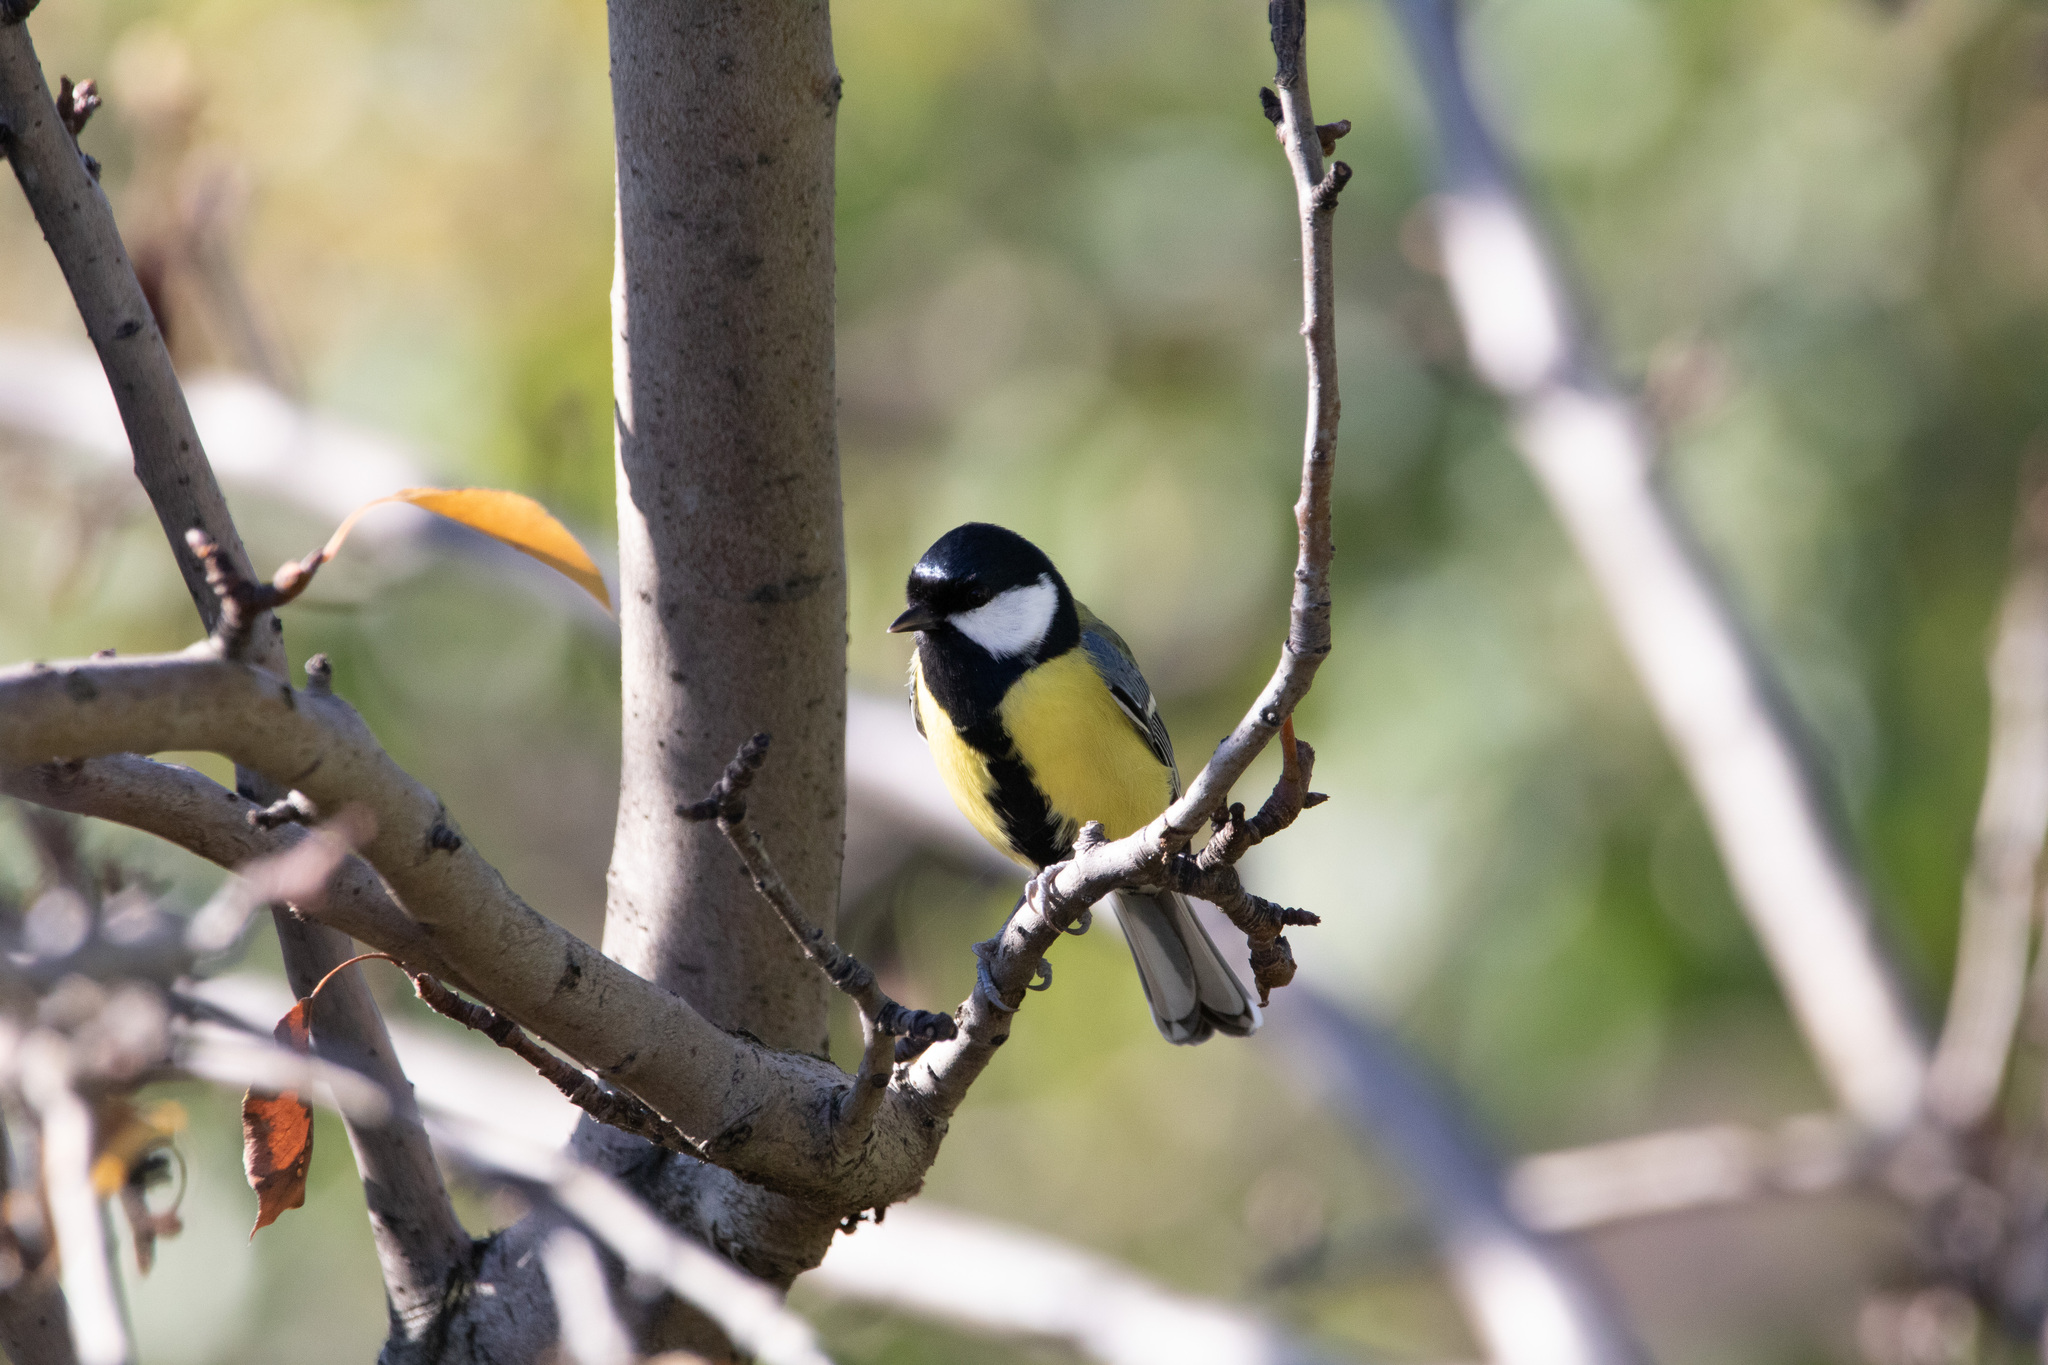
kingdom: Animalia
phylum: Chordata
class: Aves
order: Passeriformes
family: Paridae
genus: Parus
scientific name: Parus major
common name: Great tit
